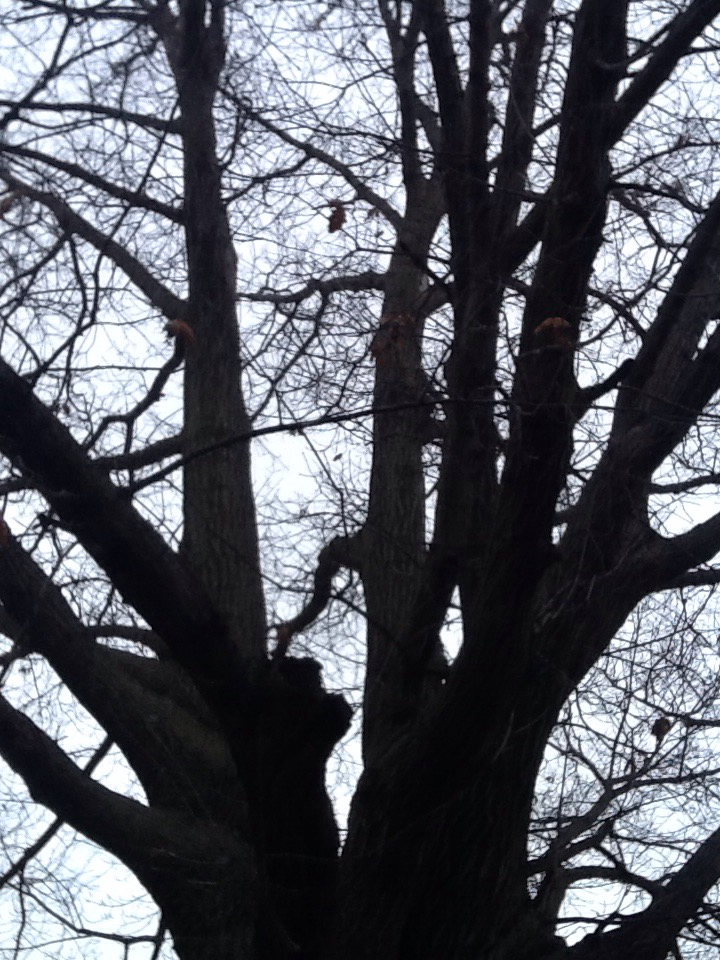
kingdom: Plantae
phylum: Tracheophyta
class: Magnoliopsida
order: Fagales
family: Fagaceae
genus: Quercus
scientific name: Quercus rubra
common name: Red oak
